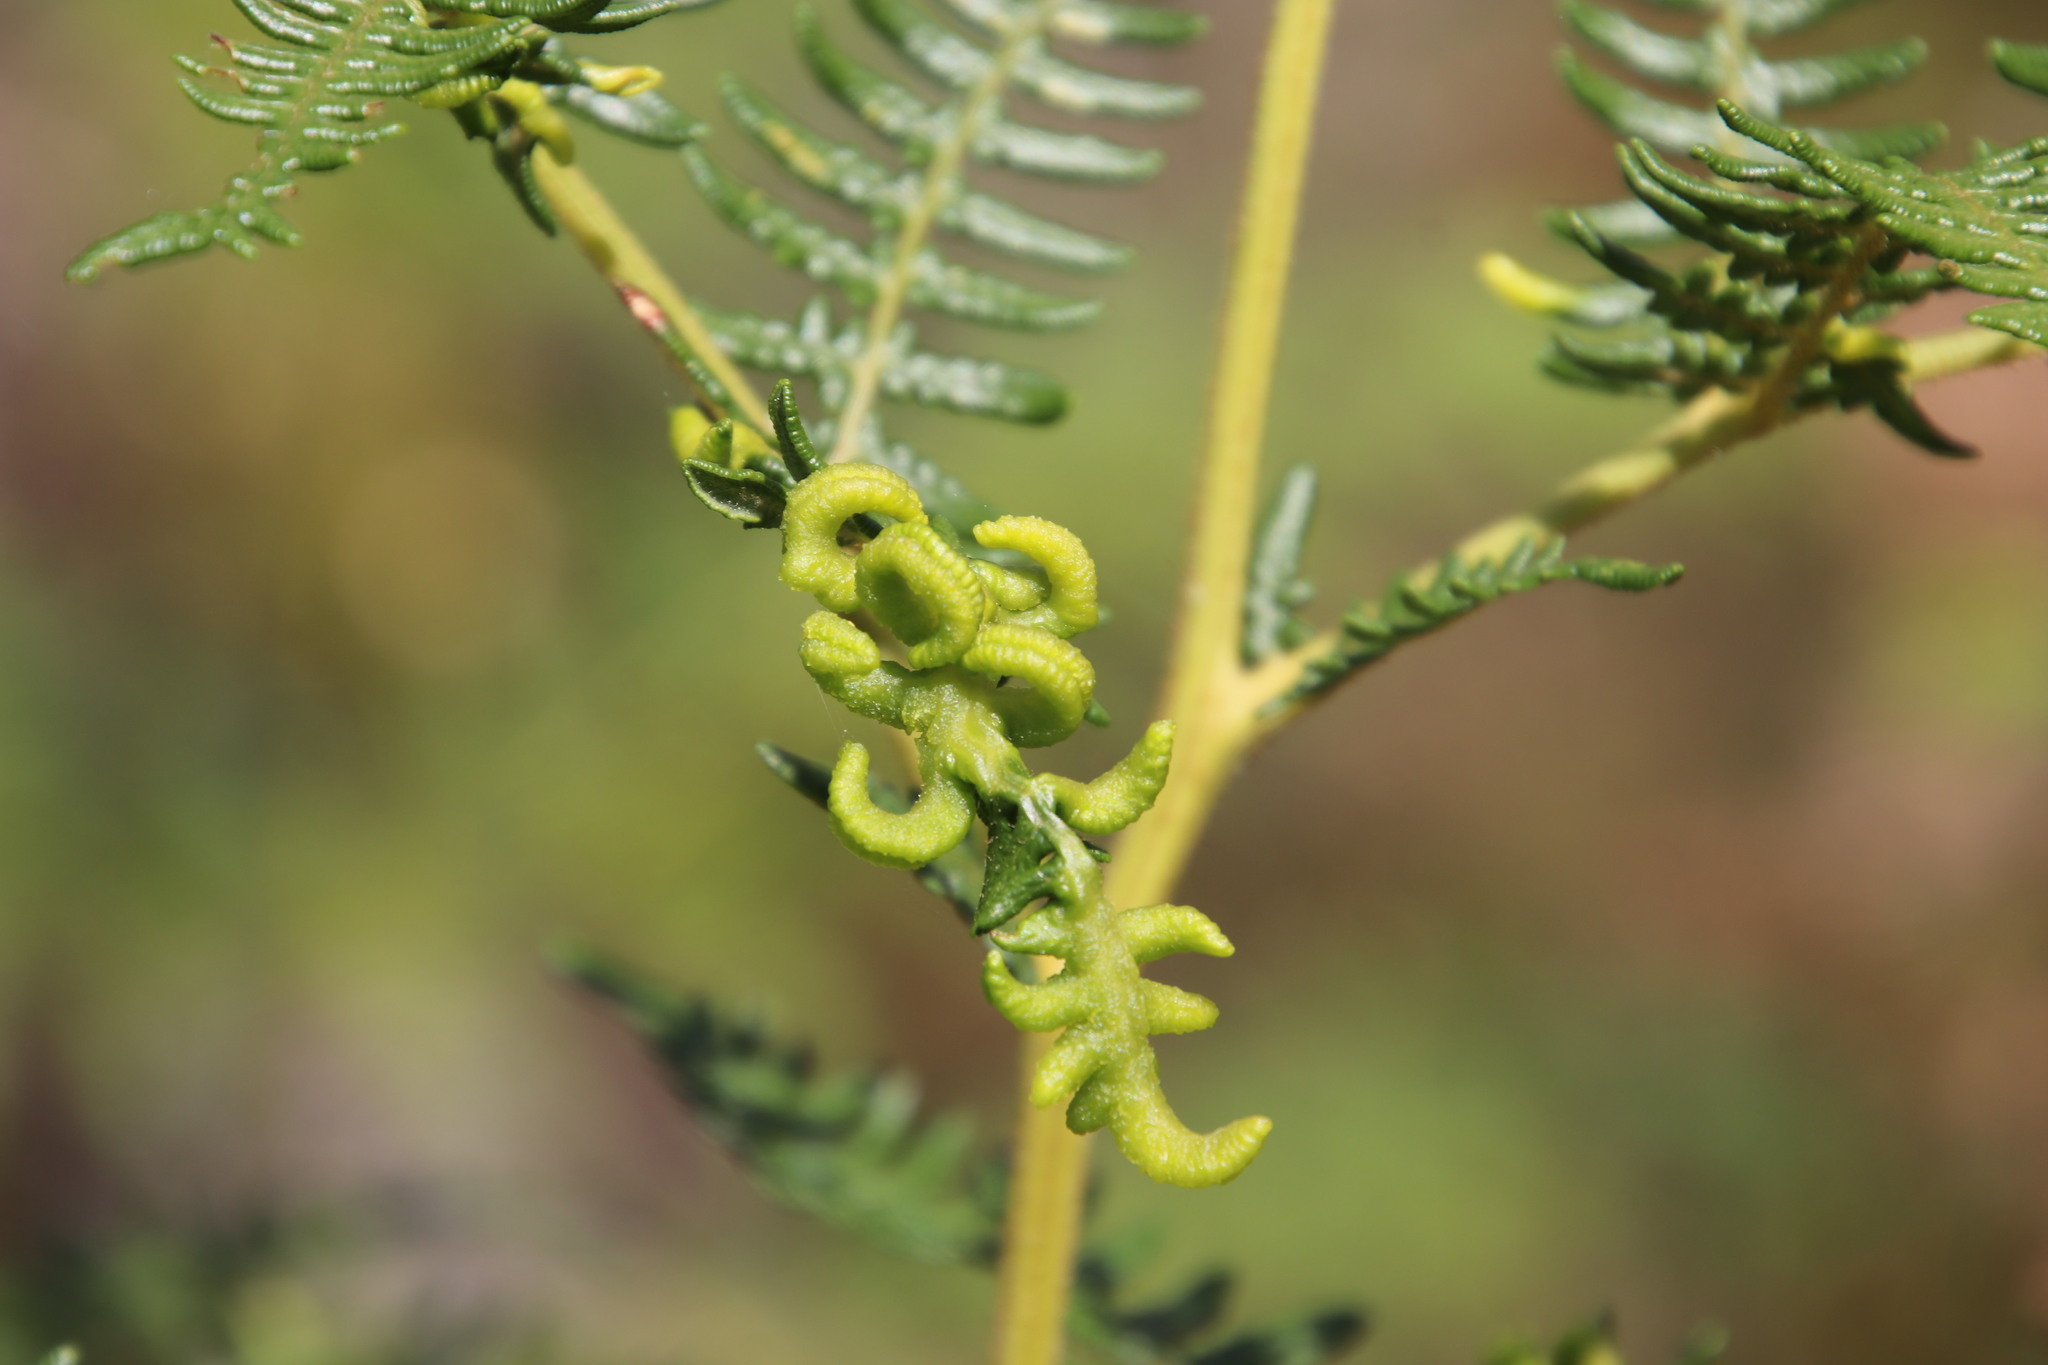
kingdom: Animalia
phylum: Arthropoda
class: Arachnida
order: Trombidiformes
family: Eriophyidae
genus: Eriophyes
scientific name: Eriophyes
